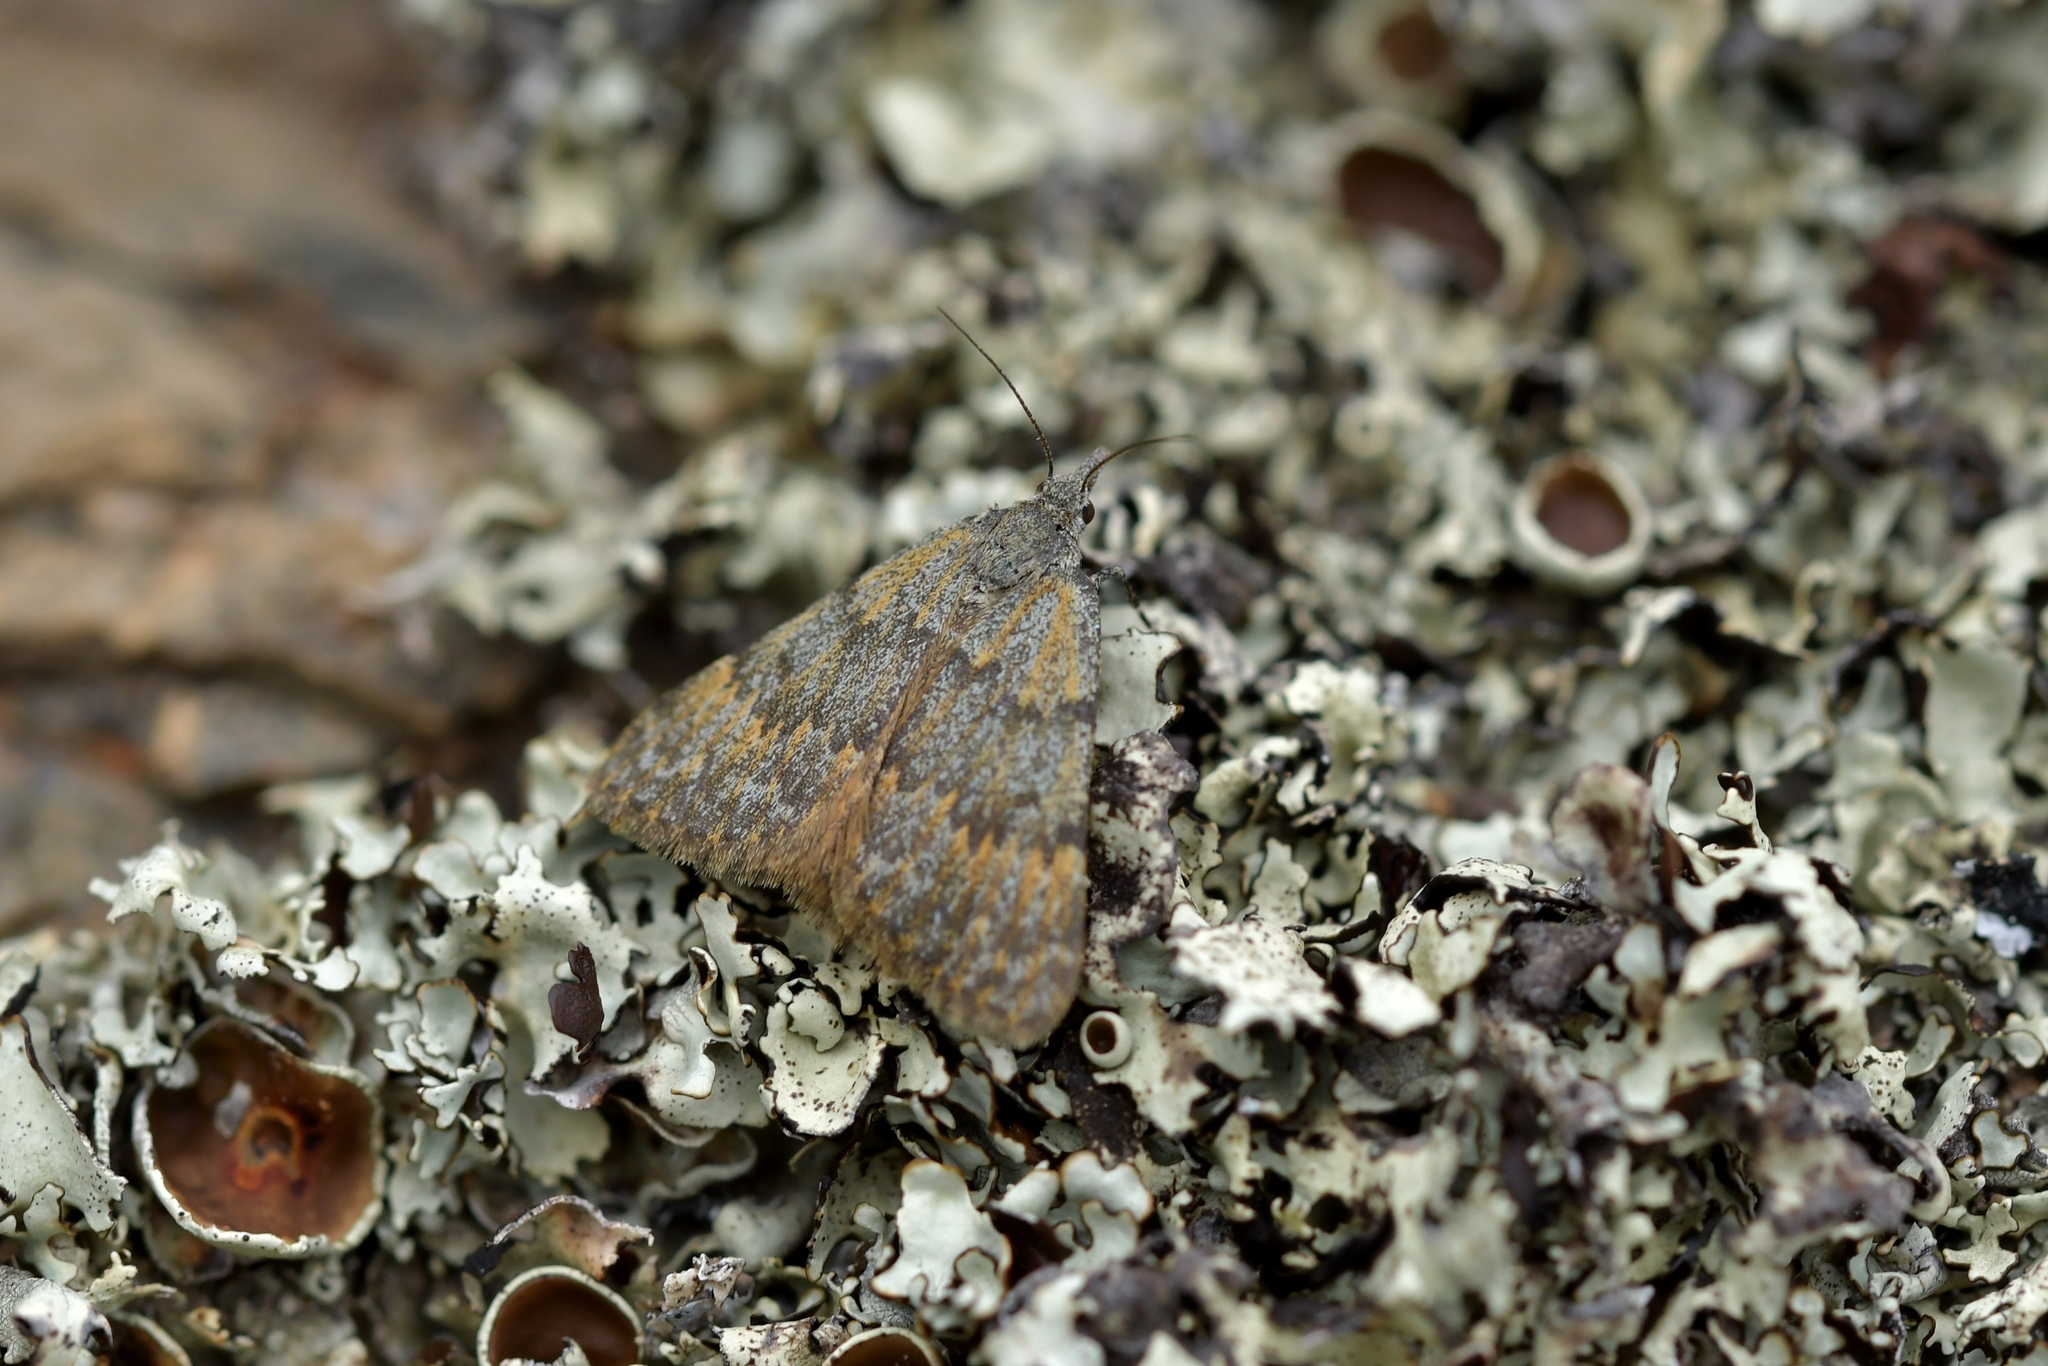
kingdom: Animalia
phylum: Arthropoda
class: Insecta
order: Lepidoptera
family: Geometridae
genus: Dichromodes
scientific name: Dichromodes simulans
